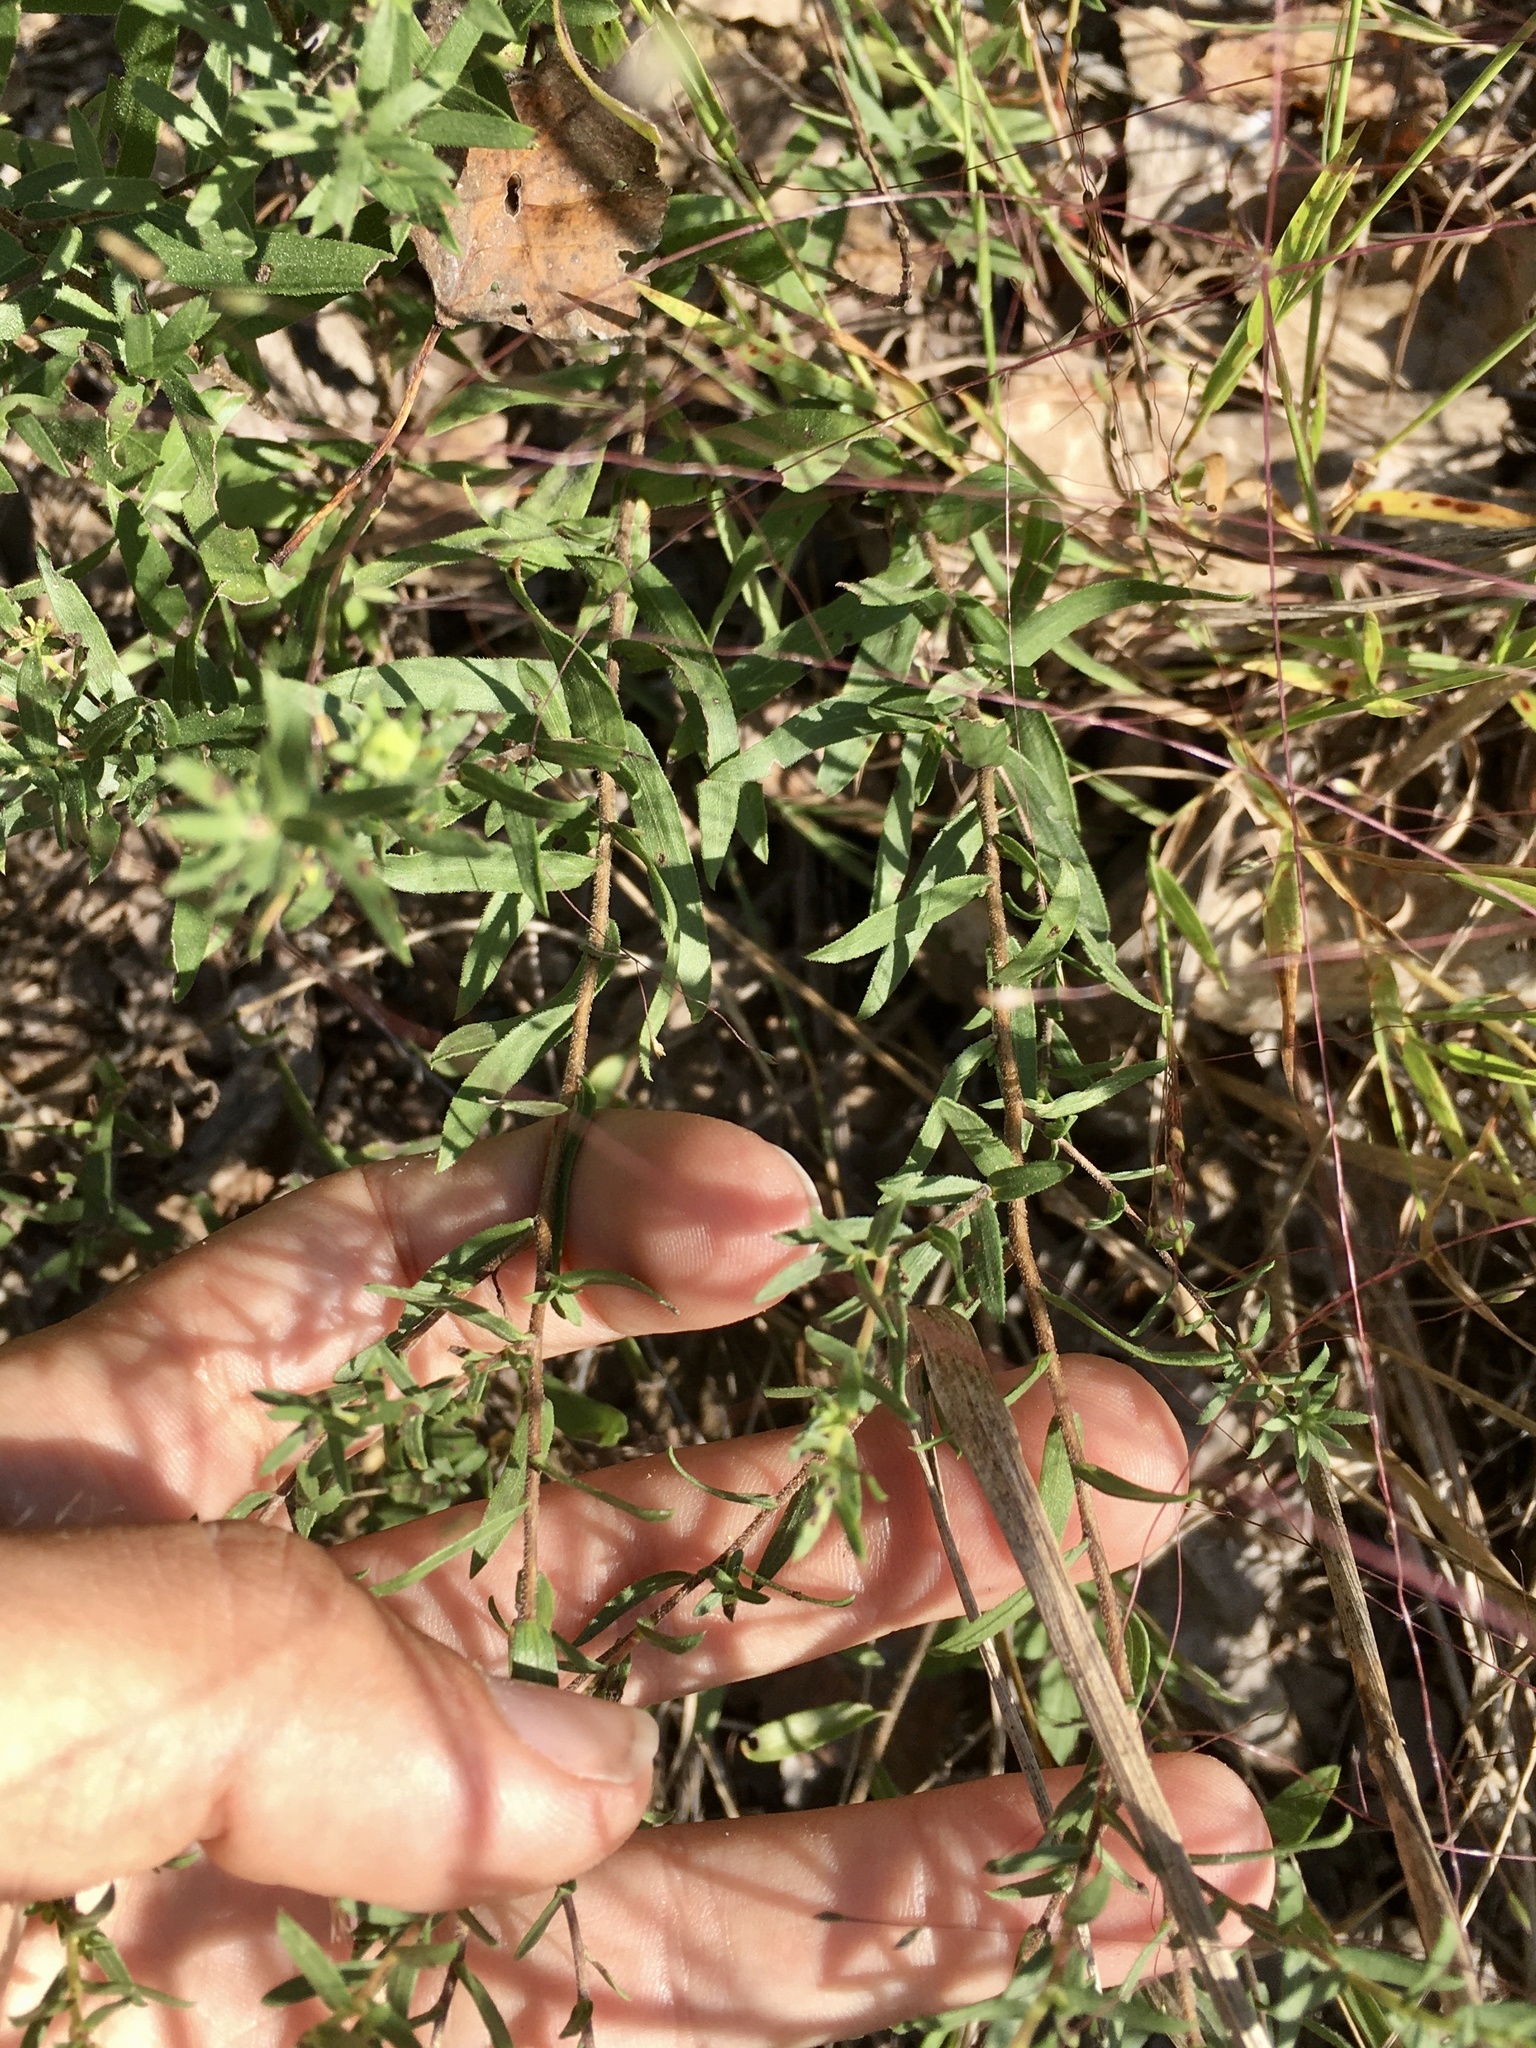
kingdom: Plantae
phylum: Tracheophyta
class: Magnoliopsida
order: Asterales
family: Asteraceae
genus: Symphyotrichum
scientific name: Symphyotrichum oblongifolium
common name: Aromatic aster
